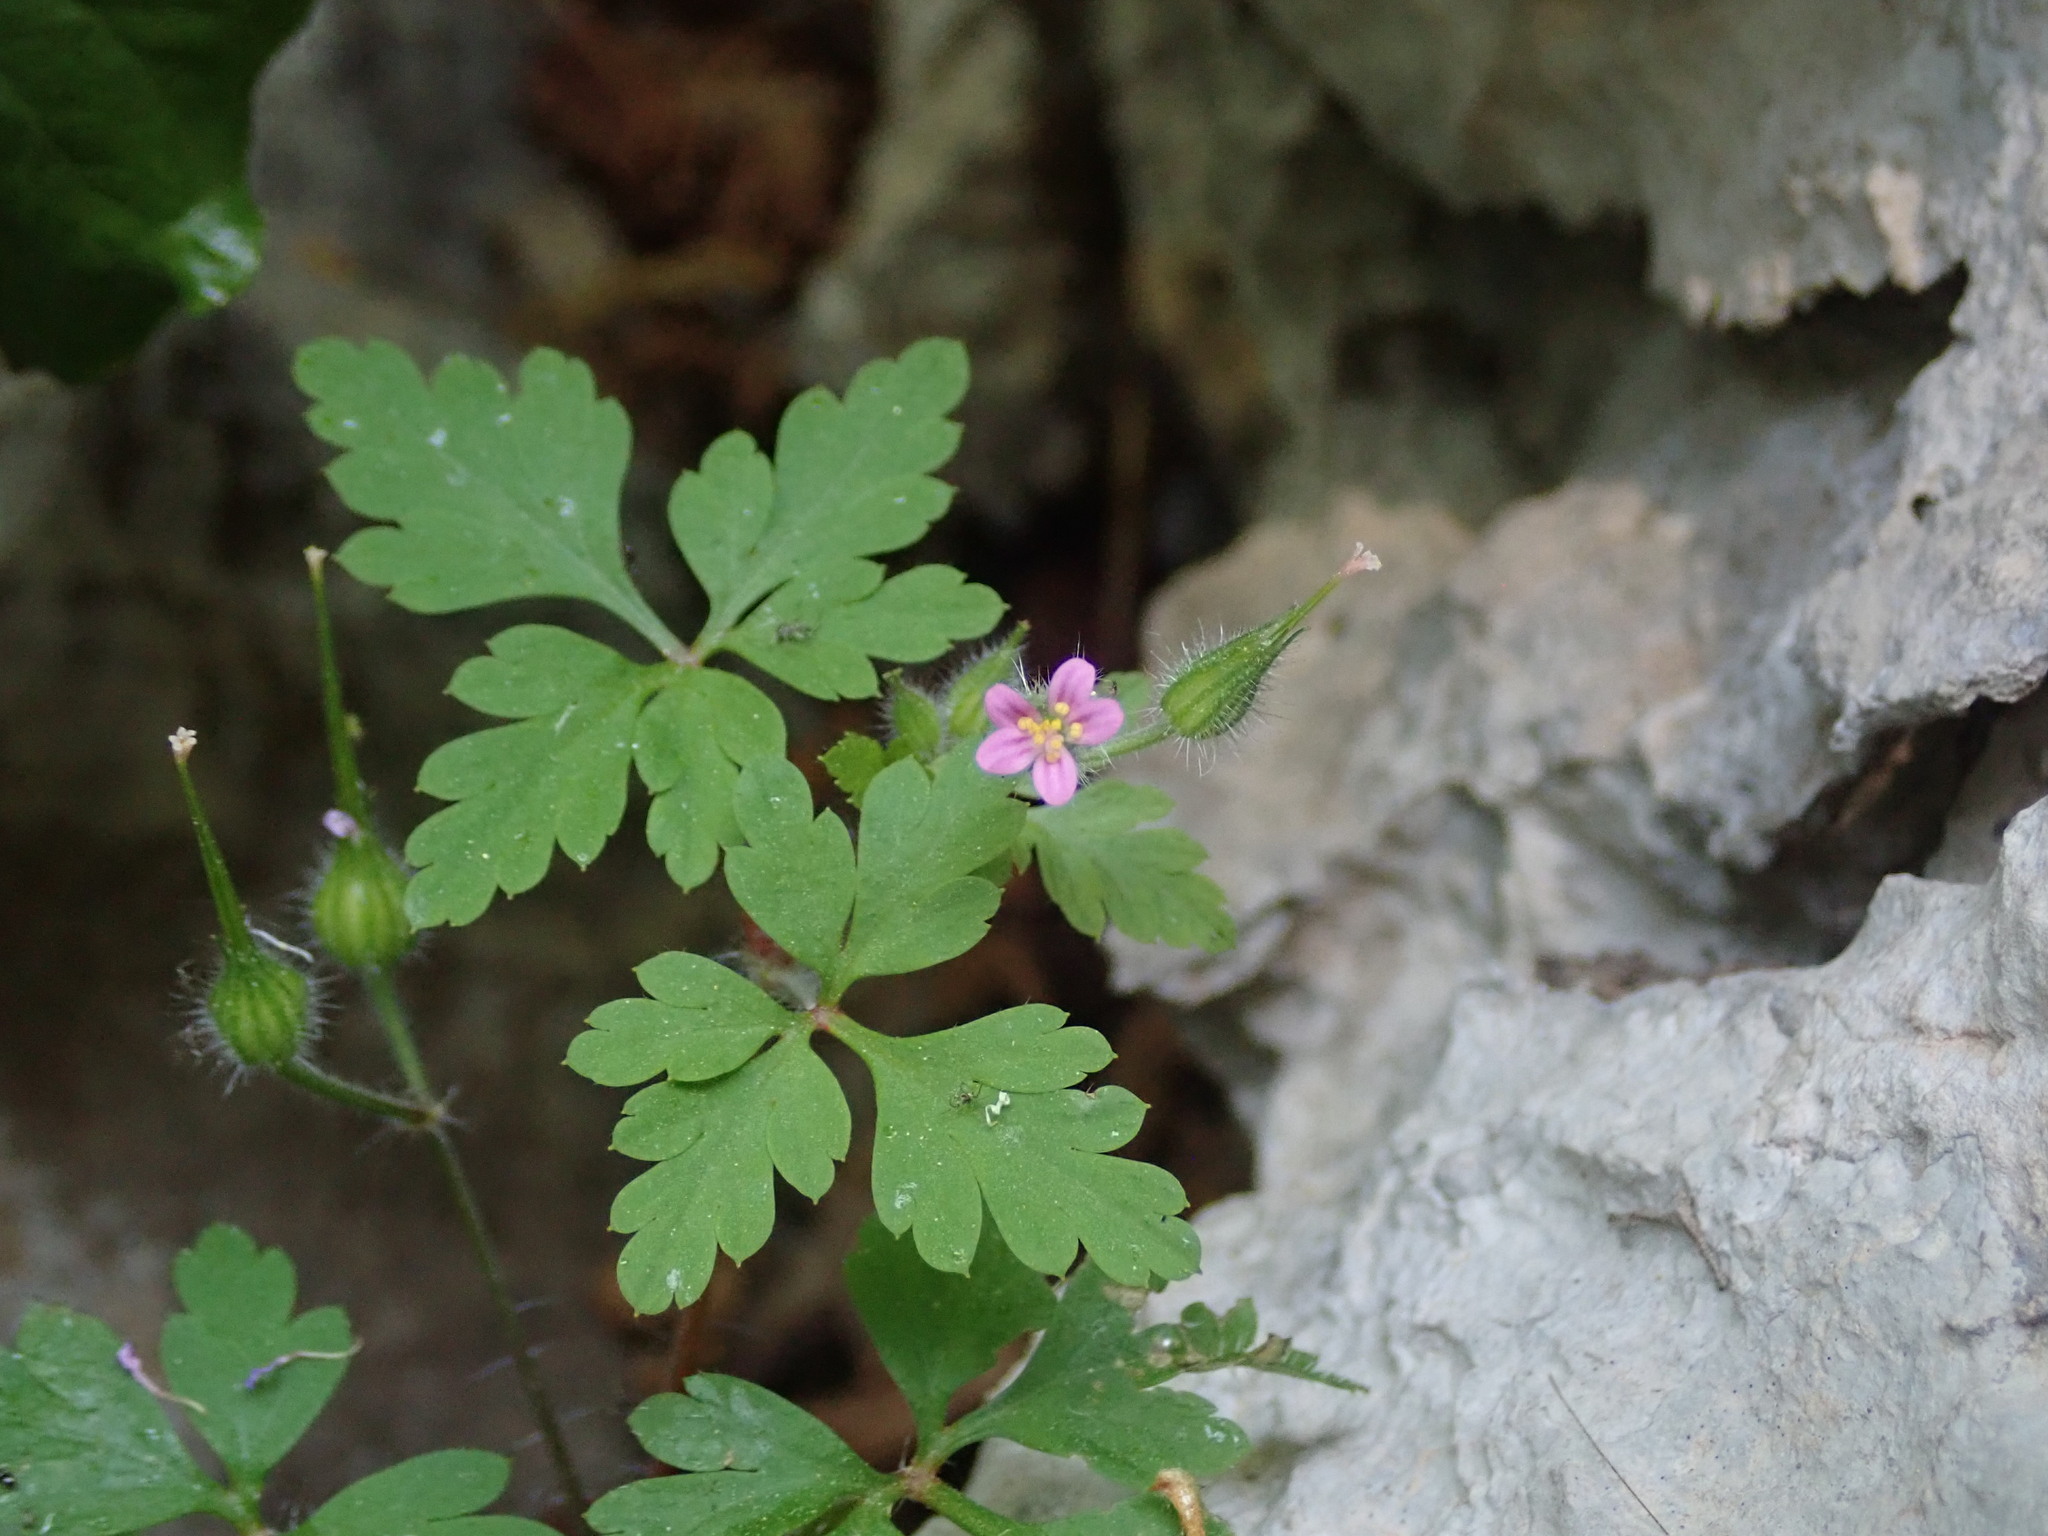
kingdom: Plantae
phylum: Tracheophyta
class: Magnoliopsida
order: Geraniales
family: Geraniaceae
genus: Geranium
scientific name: Geranium purpureum
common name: Little-robin
